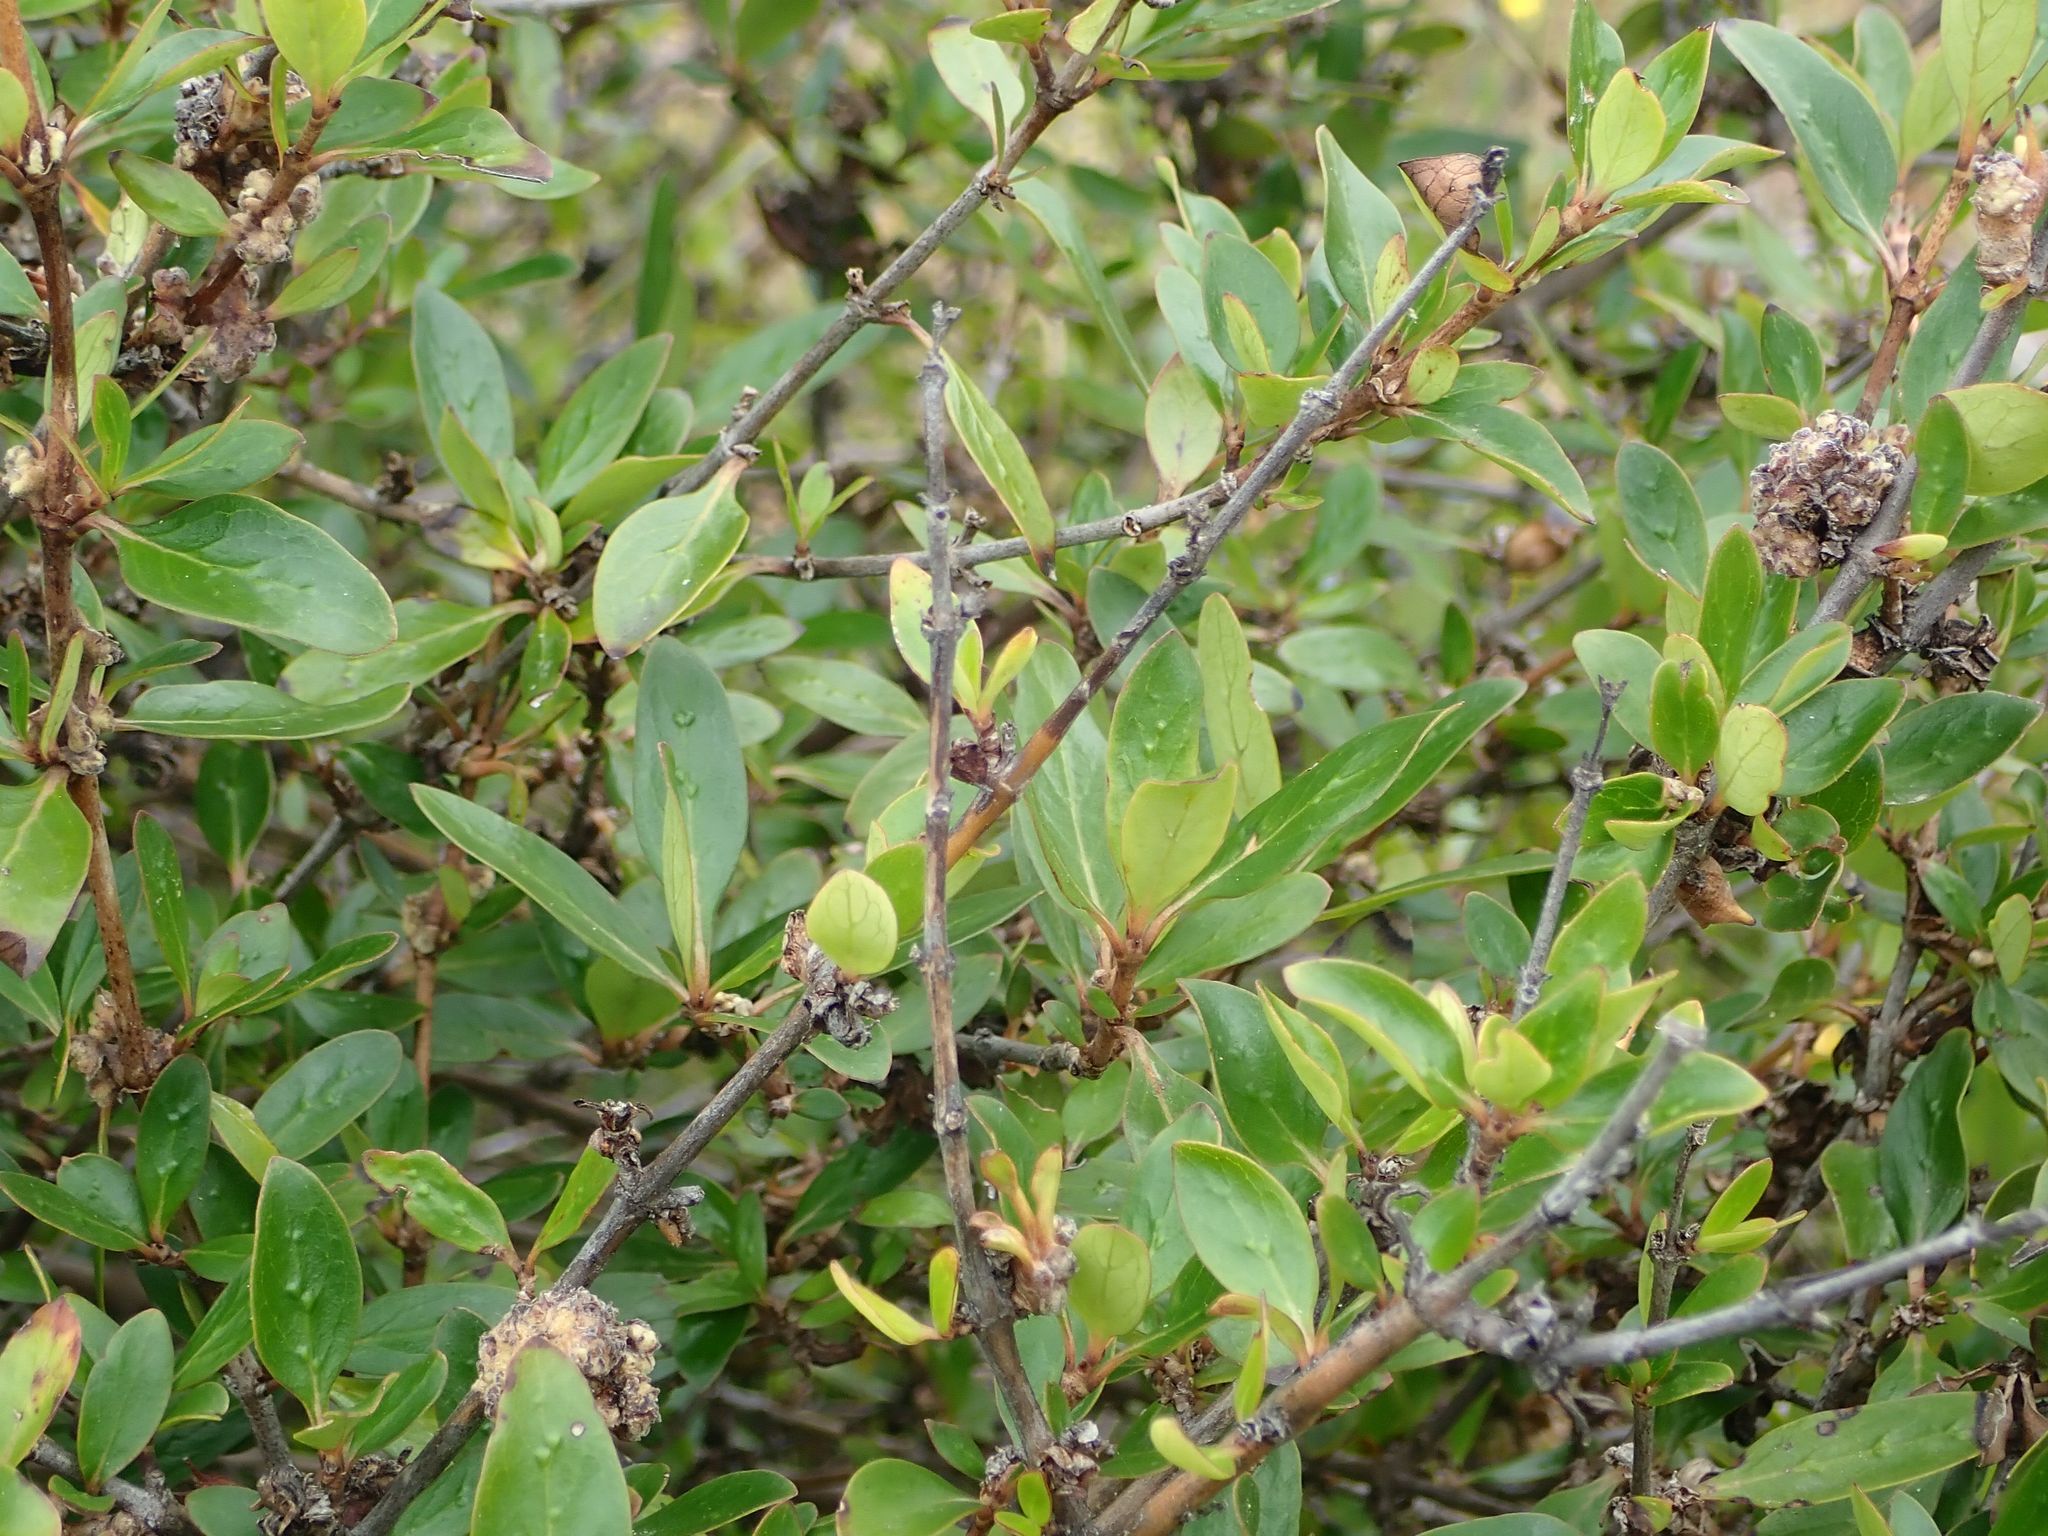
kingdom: Plantae
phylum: Tracheophyta
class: Magnoliopsida
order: Gentianales
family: Rubiaceae
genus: Coprosma
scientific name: Coprosma cunninghamii
